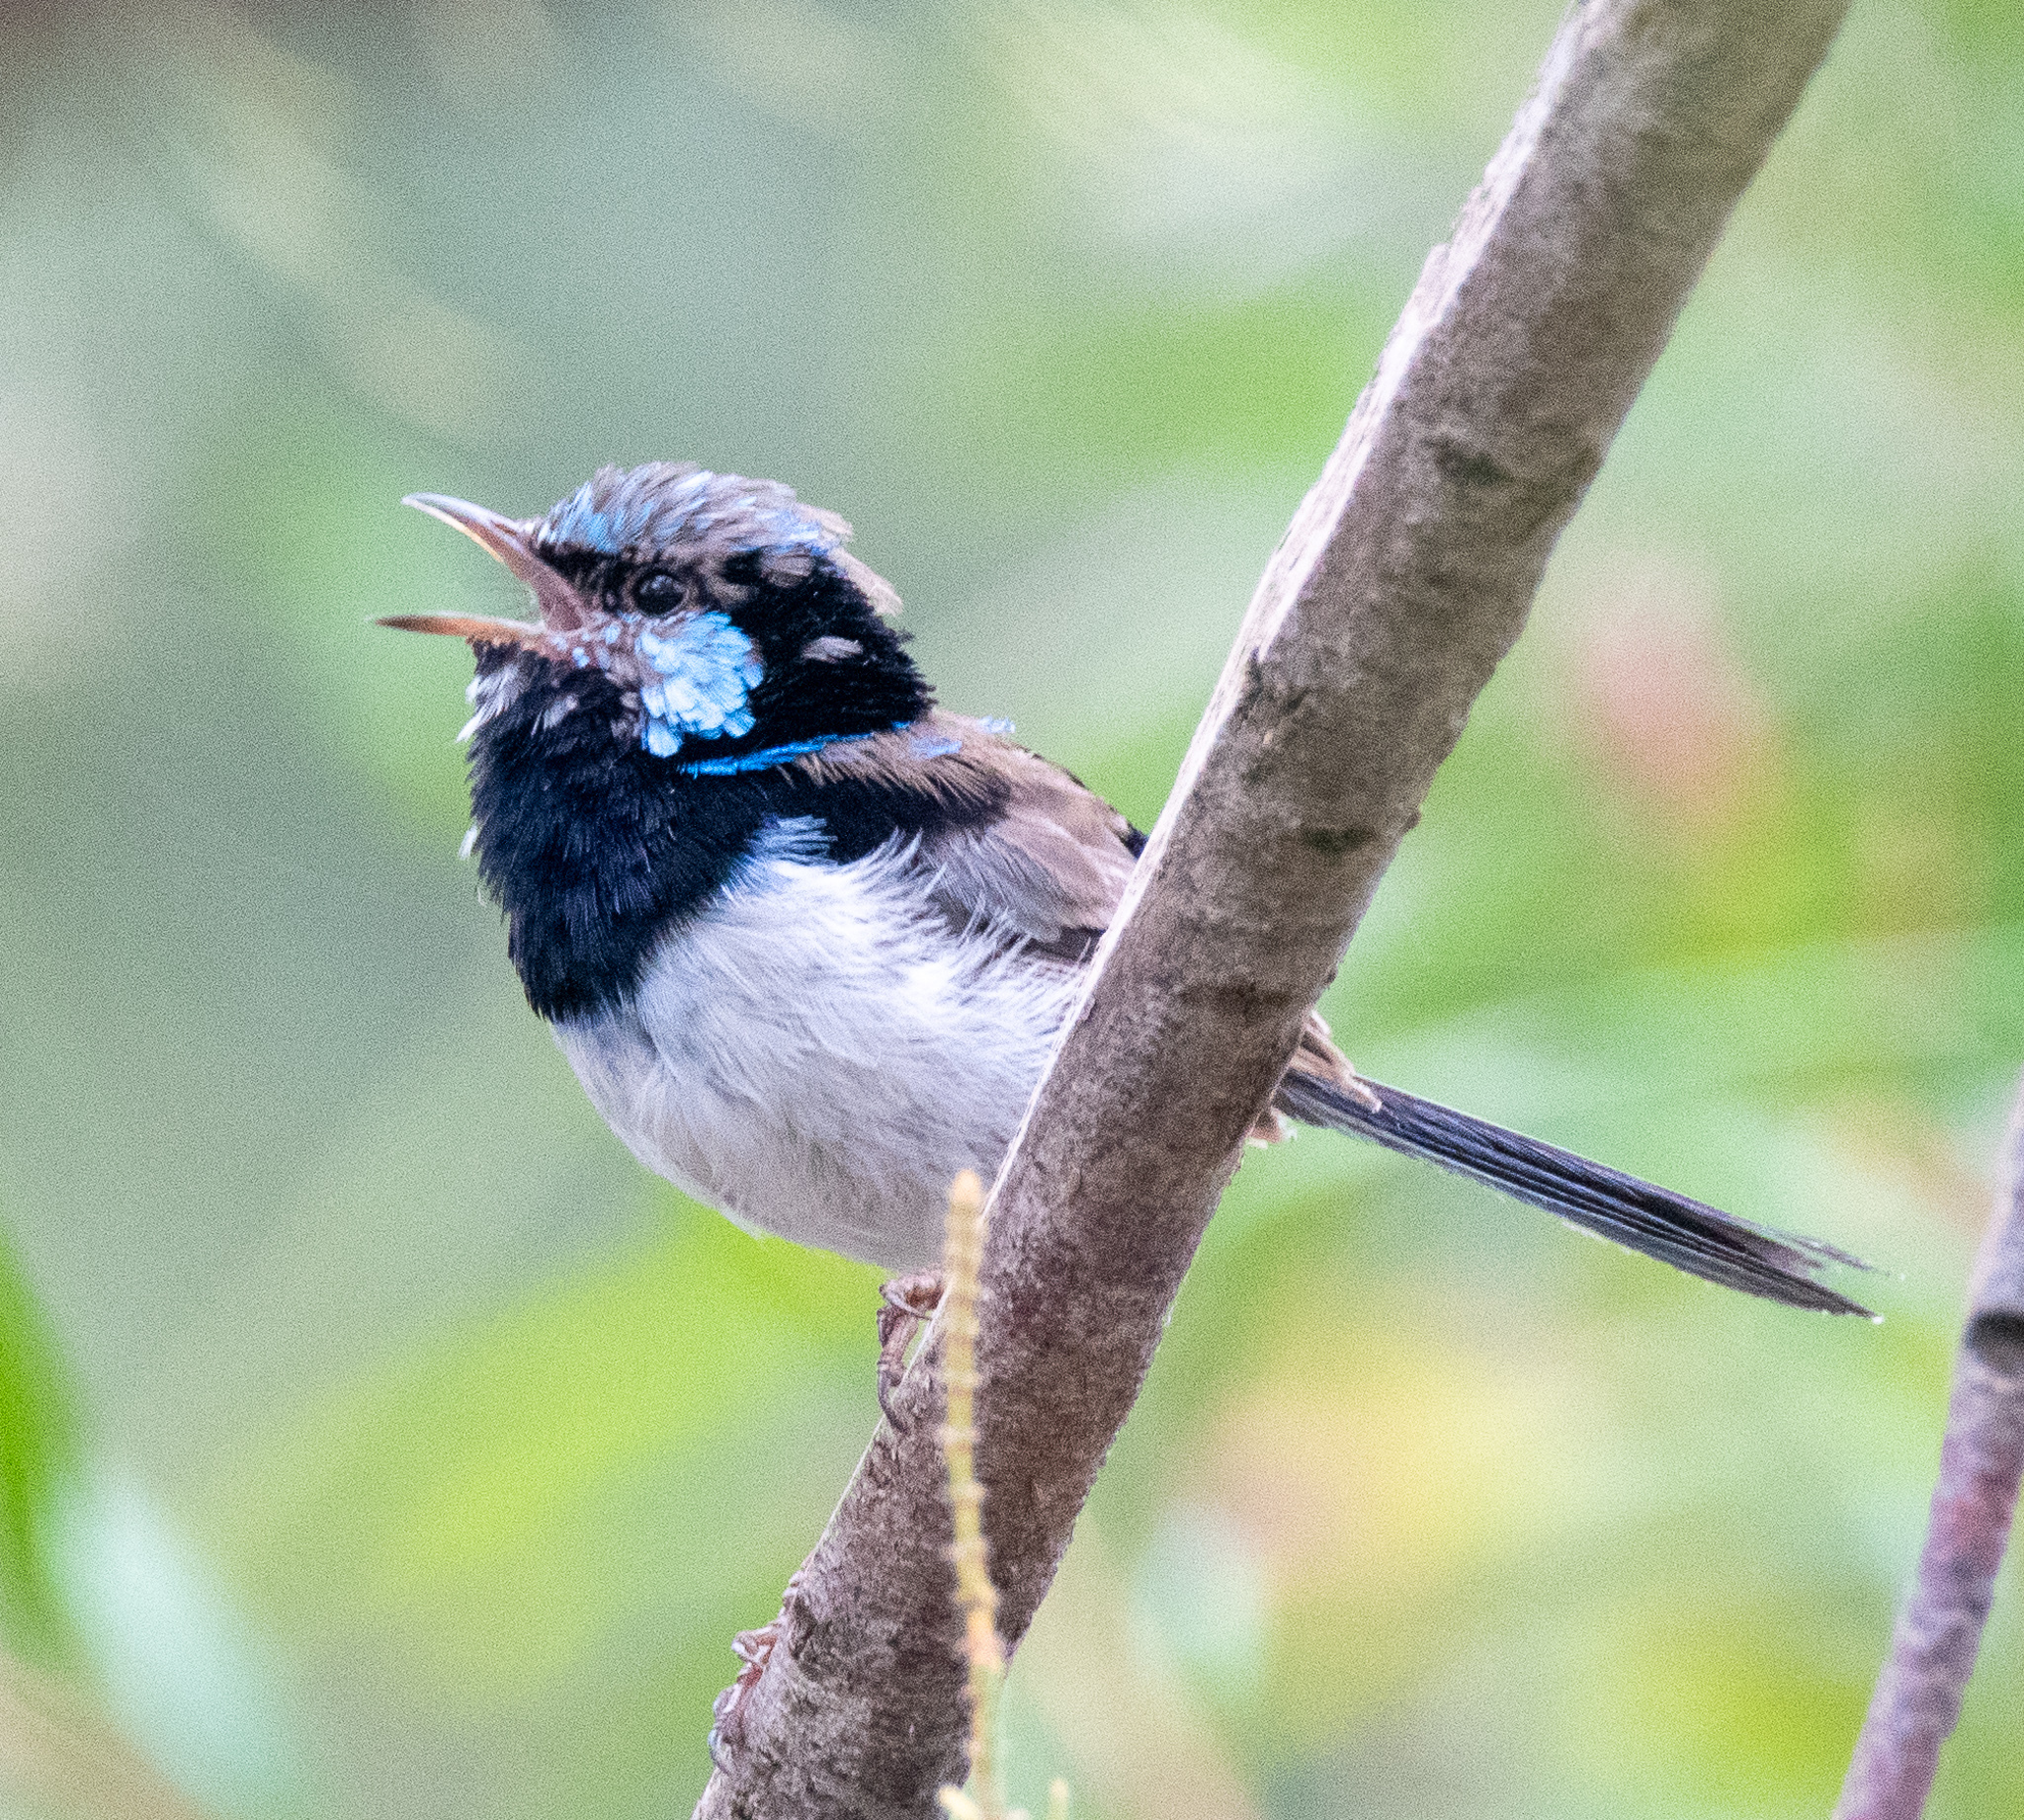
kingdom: Animalia
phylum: Chordata
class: Aves
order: Passeriformes
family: Maluridae
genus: Malurus
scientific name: Malurus cyaneus
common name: Superb fairywren
